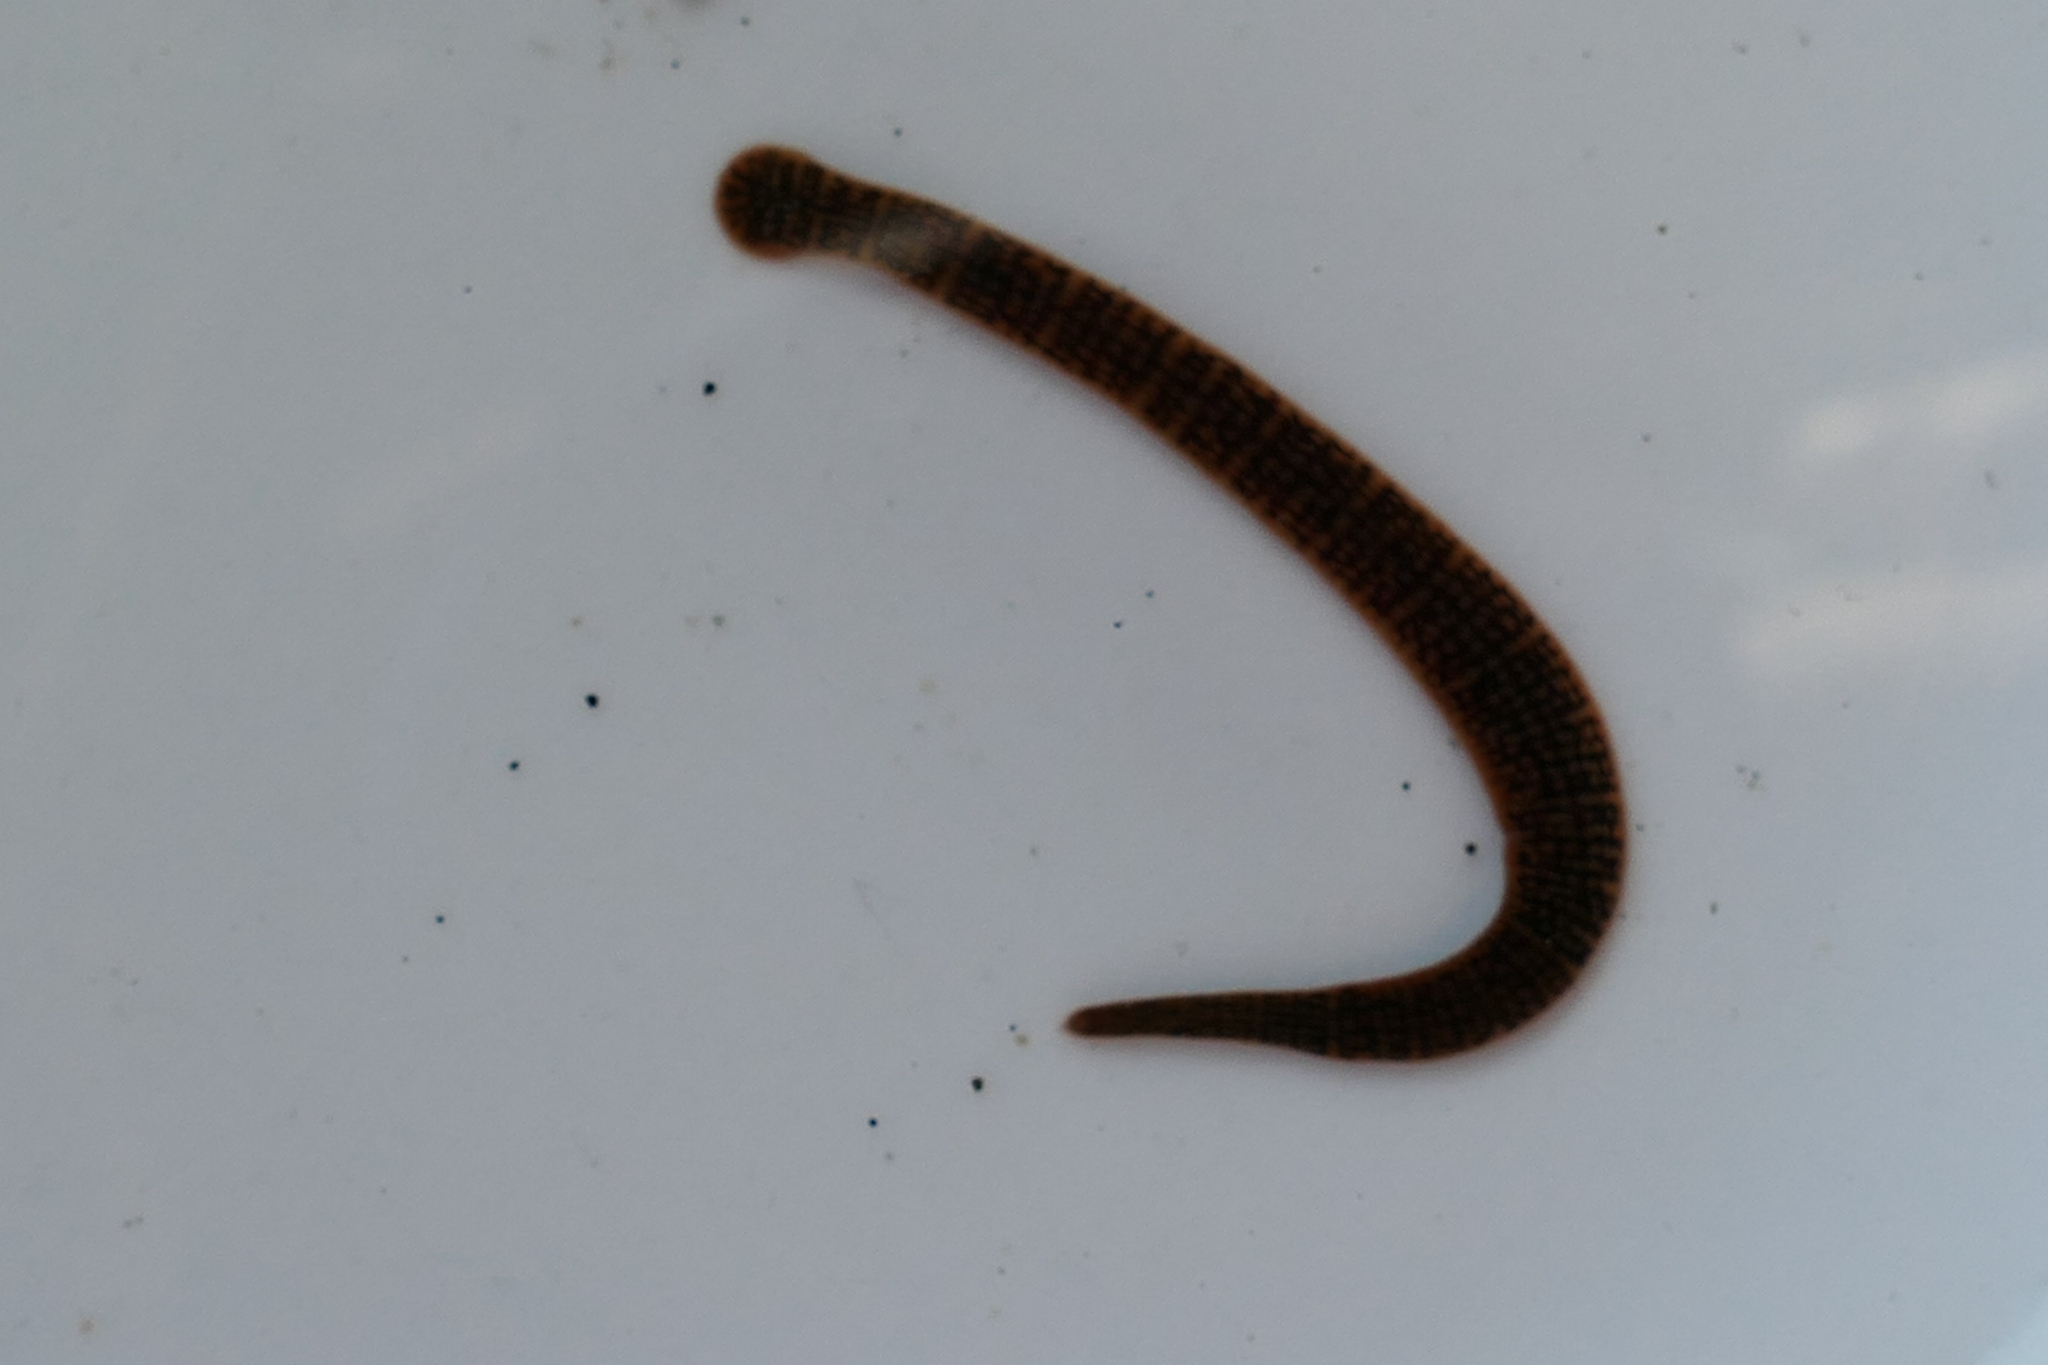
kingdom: Animalia
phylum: Annelida
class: Clitellata
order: Arhynchobdellida
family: Erpobdellidae
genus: Erpobdella
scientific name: Erpobdella octoculata
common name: Leeches
